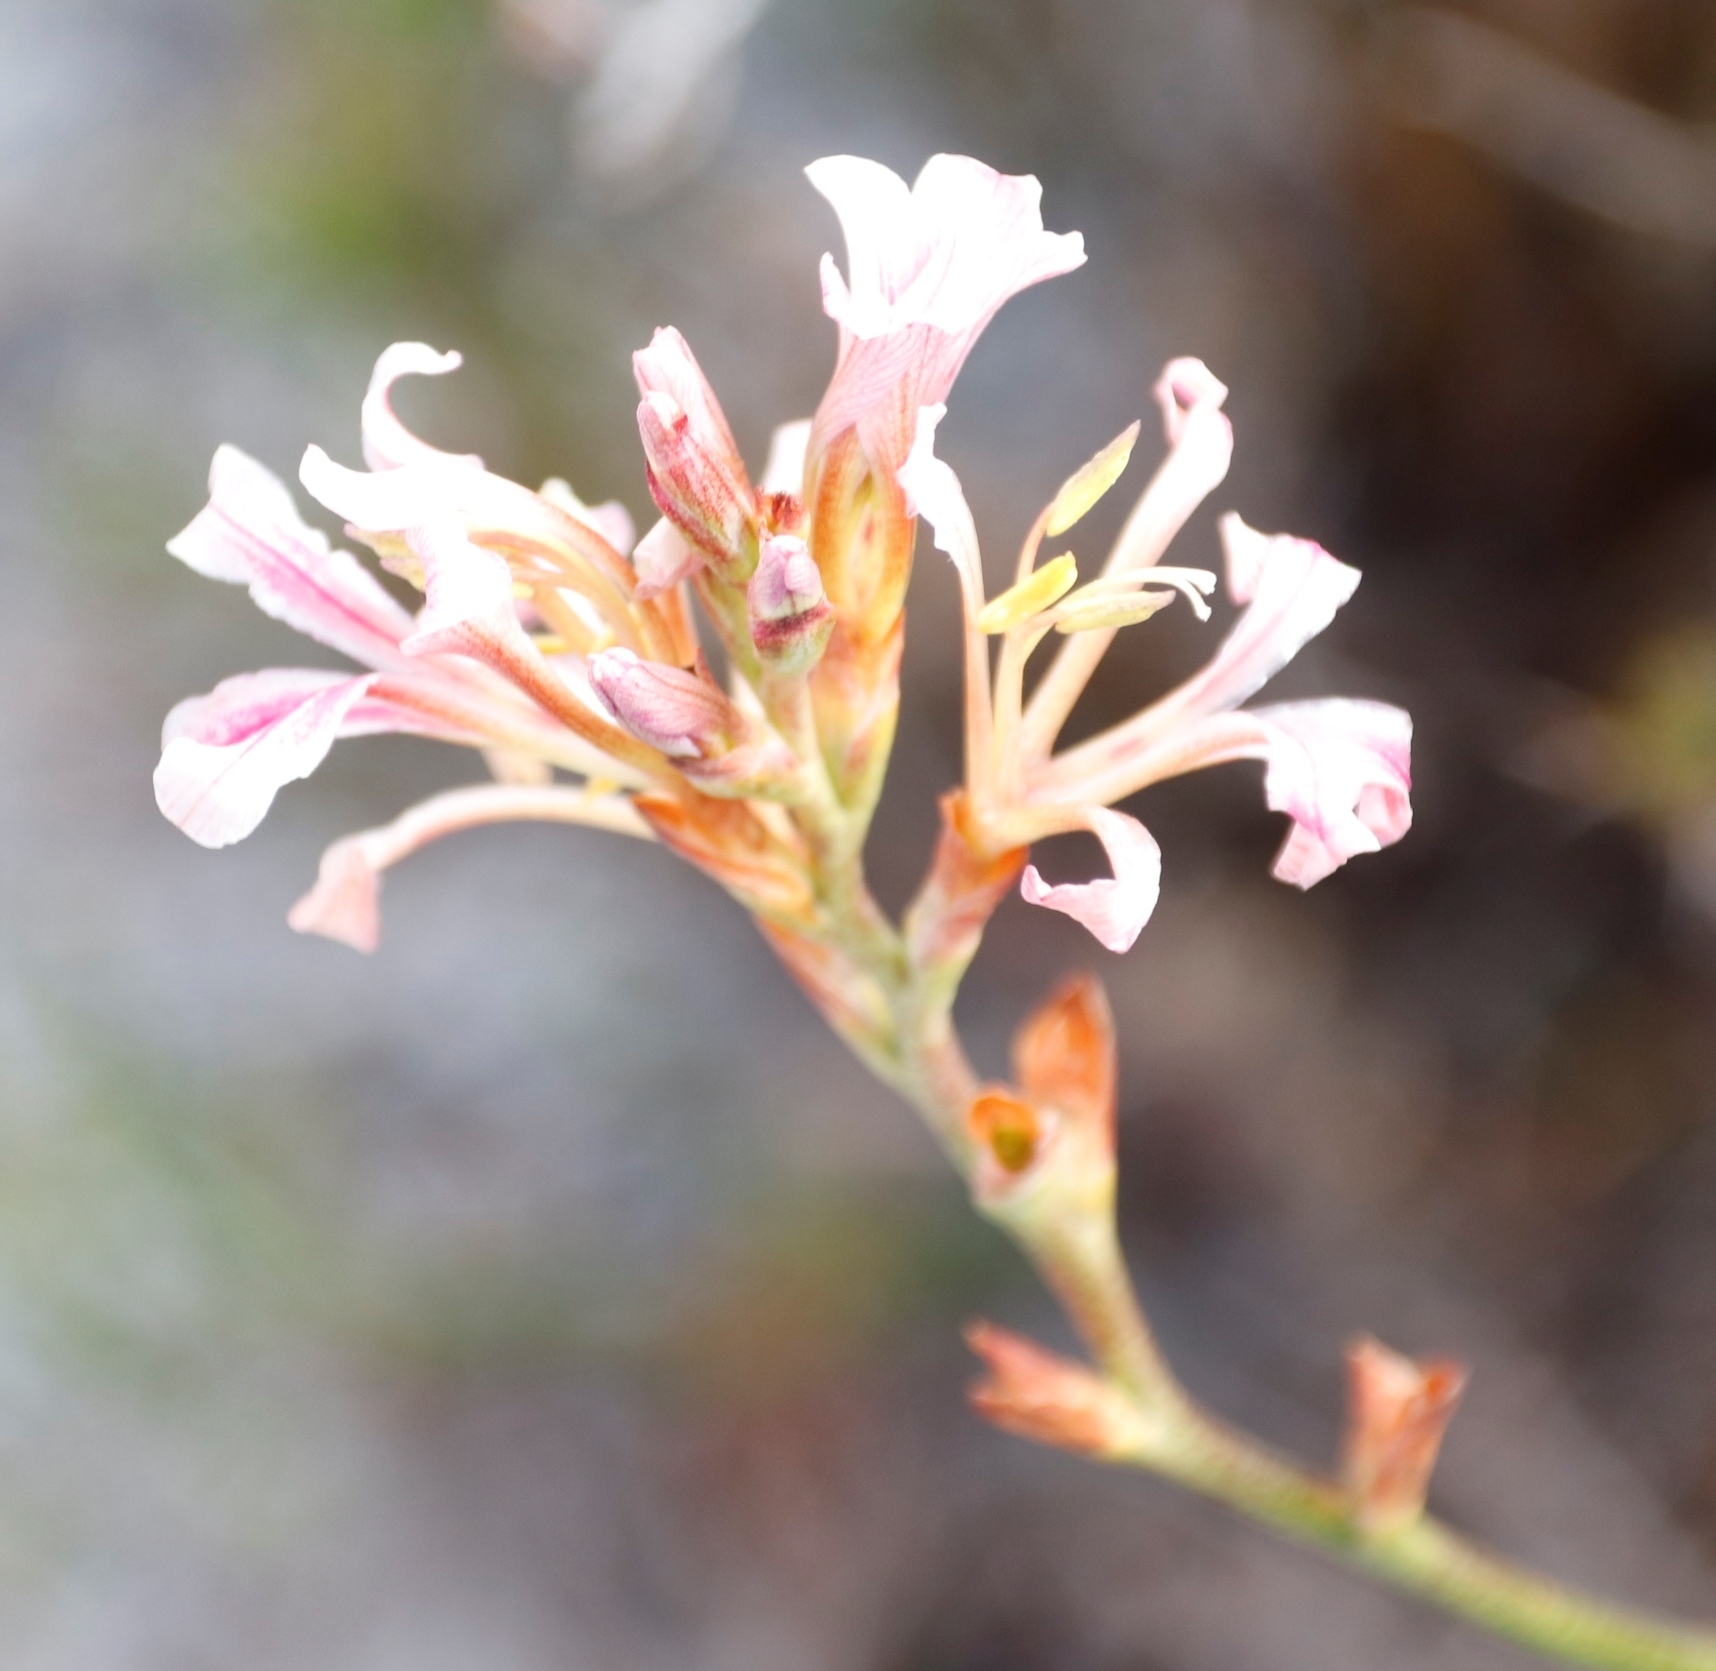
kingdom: Plantae
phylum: Tracheophyta
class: Liliopsida
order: Asparagales
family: Iridaceae
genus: Tritoniopsis
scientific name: Tritoniopsis dodii
